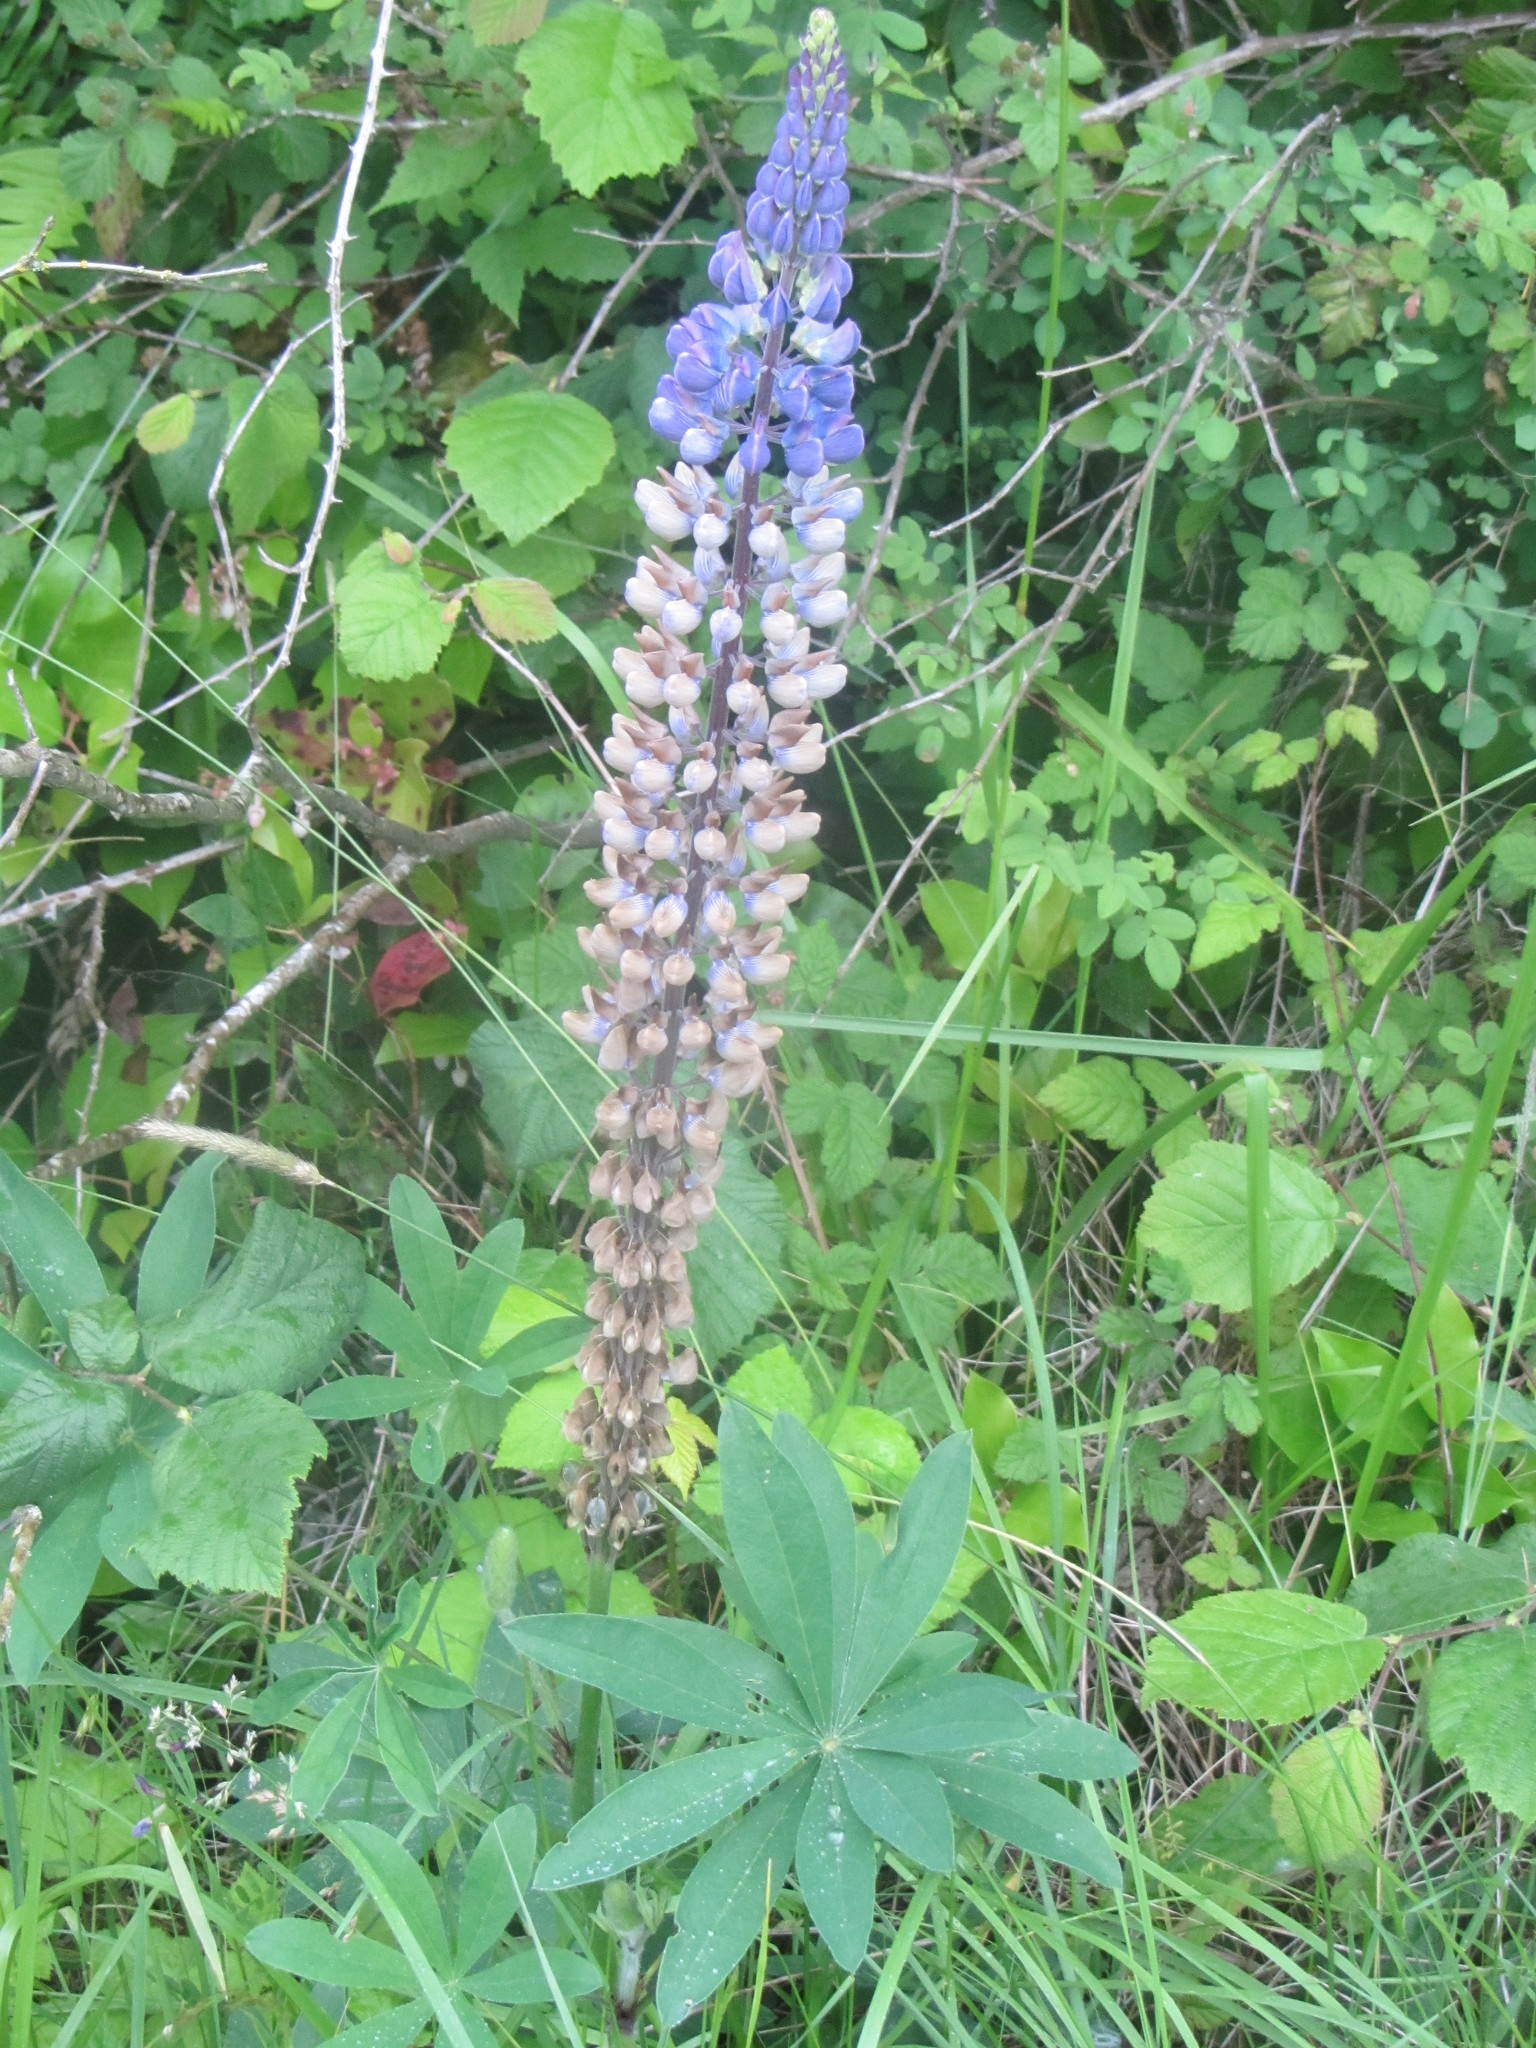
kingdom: Plantae
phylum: Tracheophyta
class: Magnoliopsida
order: Fabales
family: Fabaceae
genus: Lupinus
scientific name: Lupinus polyphyllus
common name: Garden lupin
